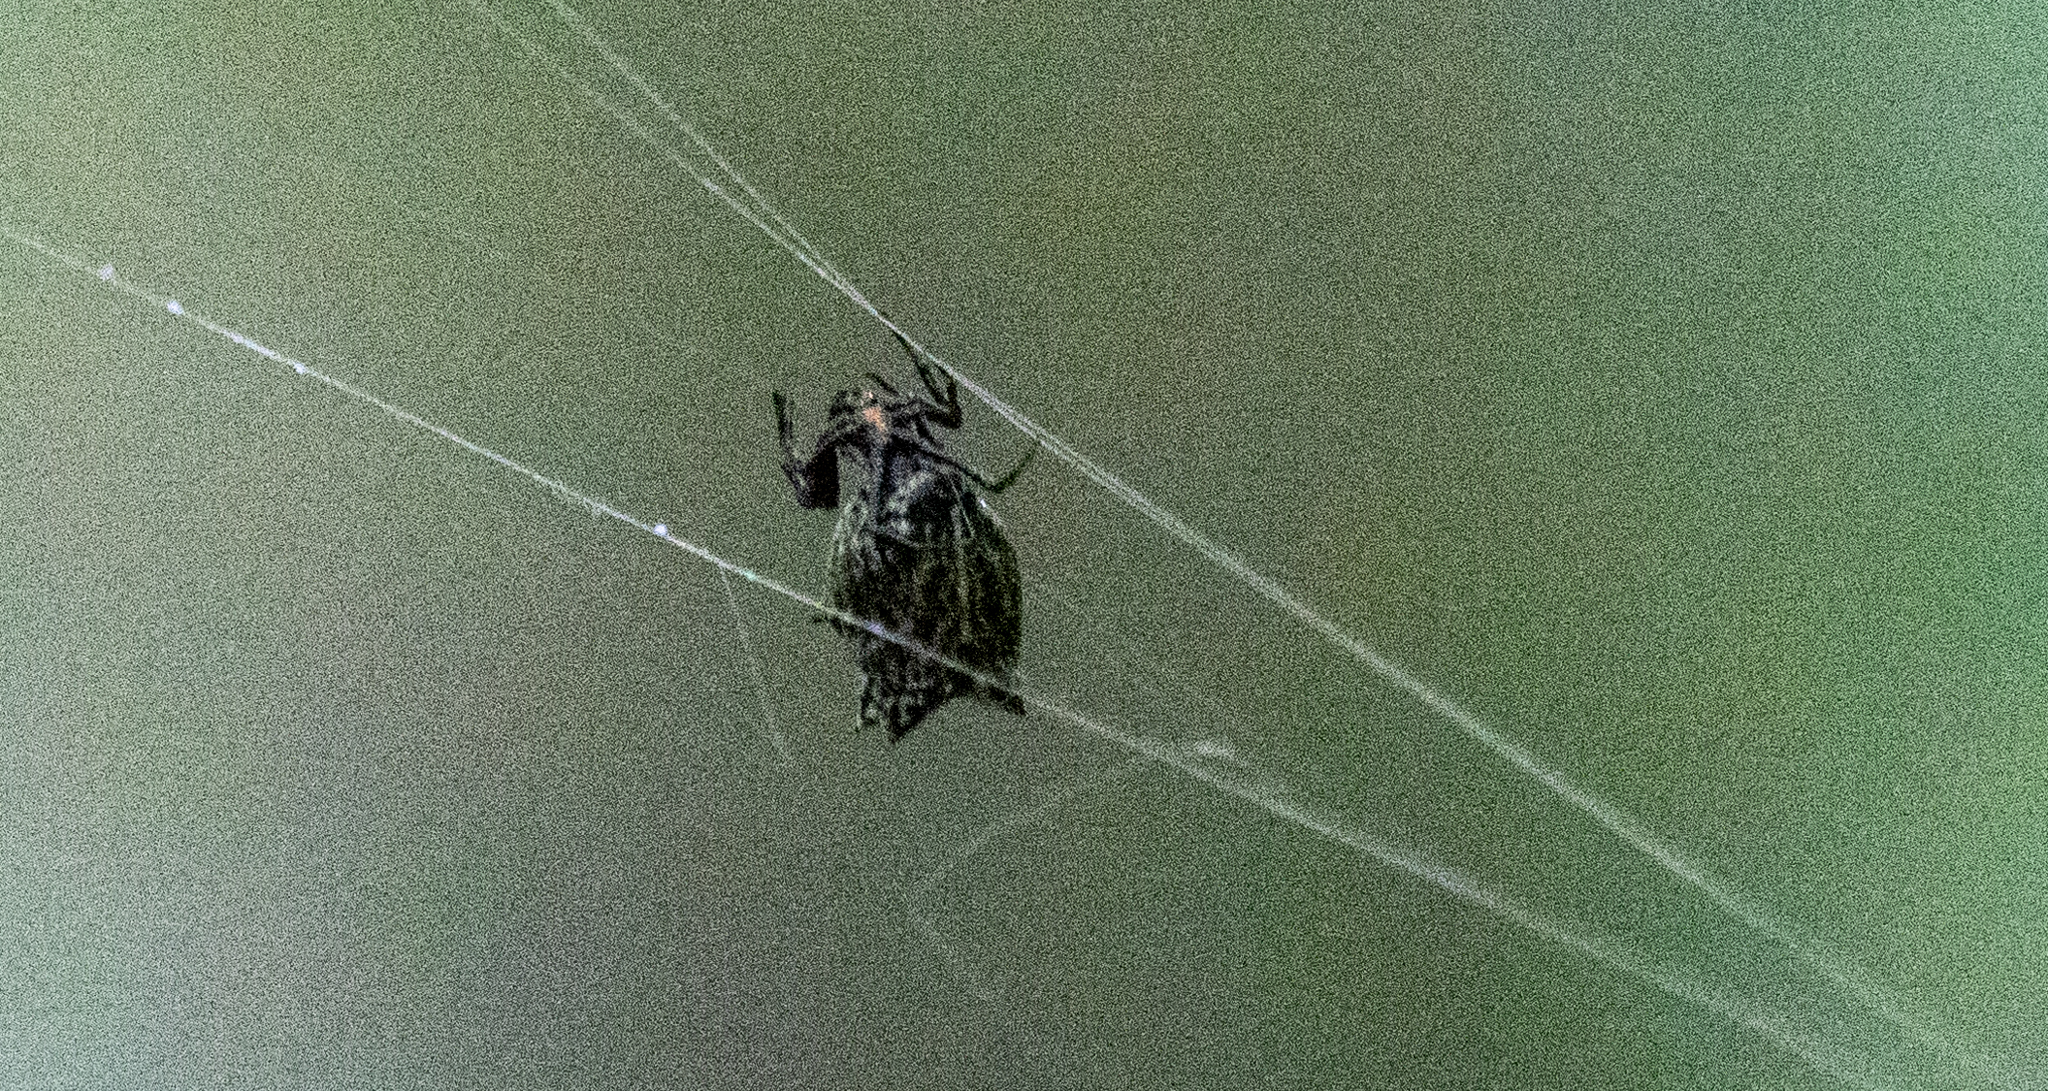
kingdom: Animalia
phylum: Arthropoda
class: Arachnida
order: Araneae
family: Araneidae
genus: Micrathena
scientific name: Micrathena gracilis
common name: Orb weavers
